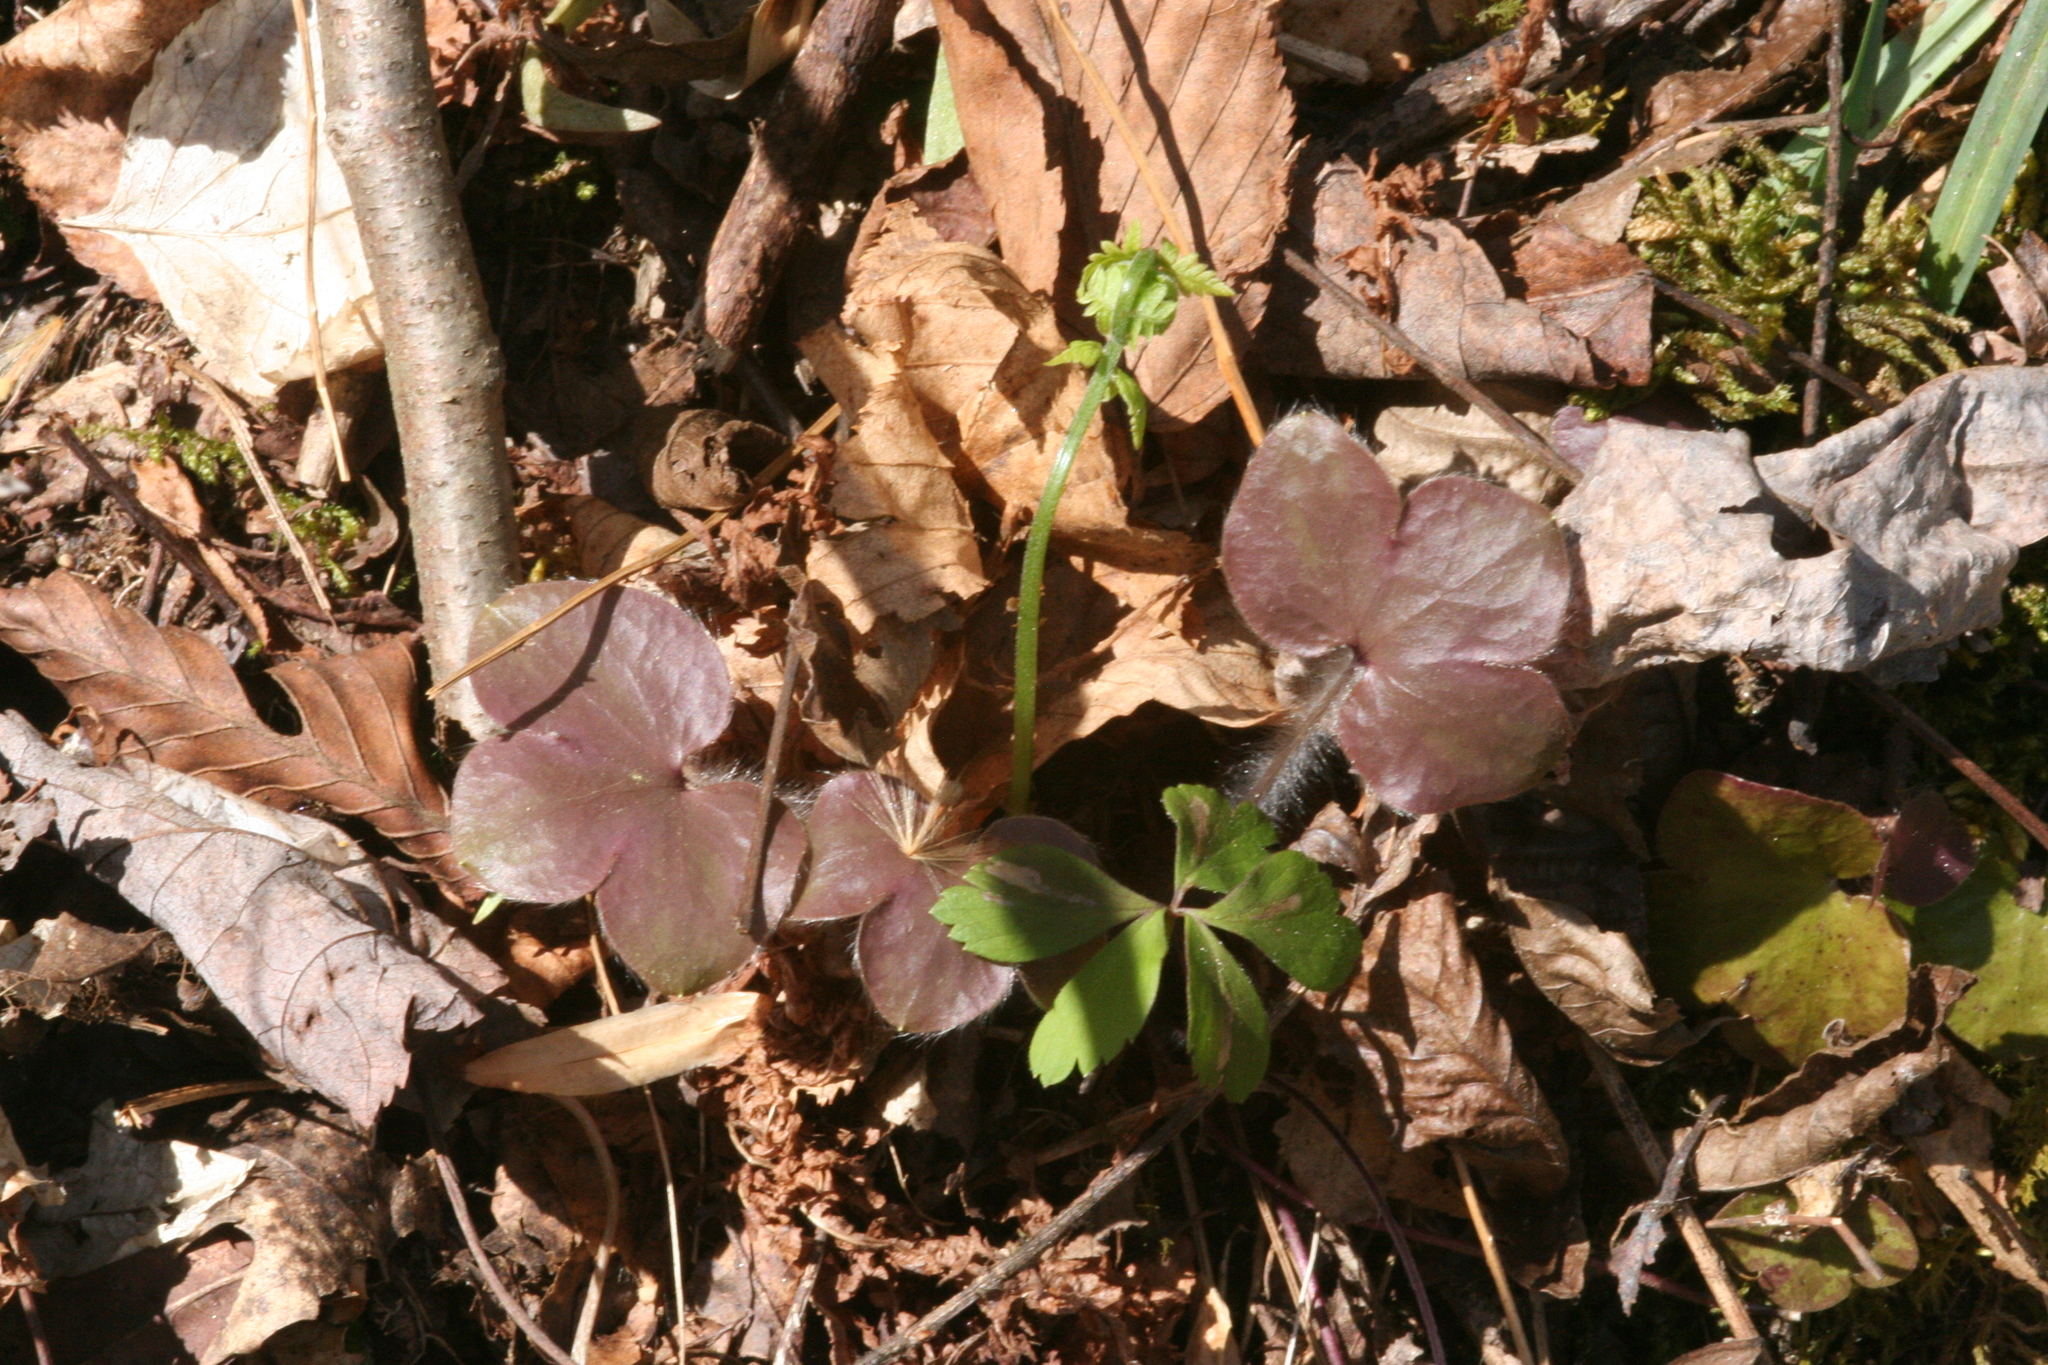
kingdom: Plantae
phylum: Tracheophyta
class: Magnoliopsida
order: Ranunculales
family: Ranunculaceae
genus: Hepatica
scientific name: Hepatica americana
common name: American hepatica
